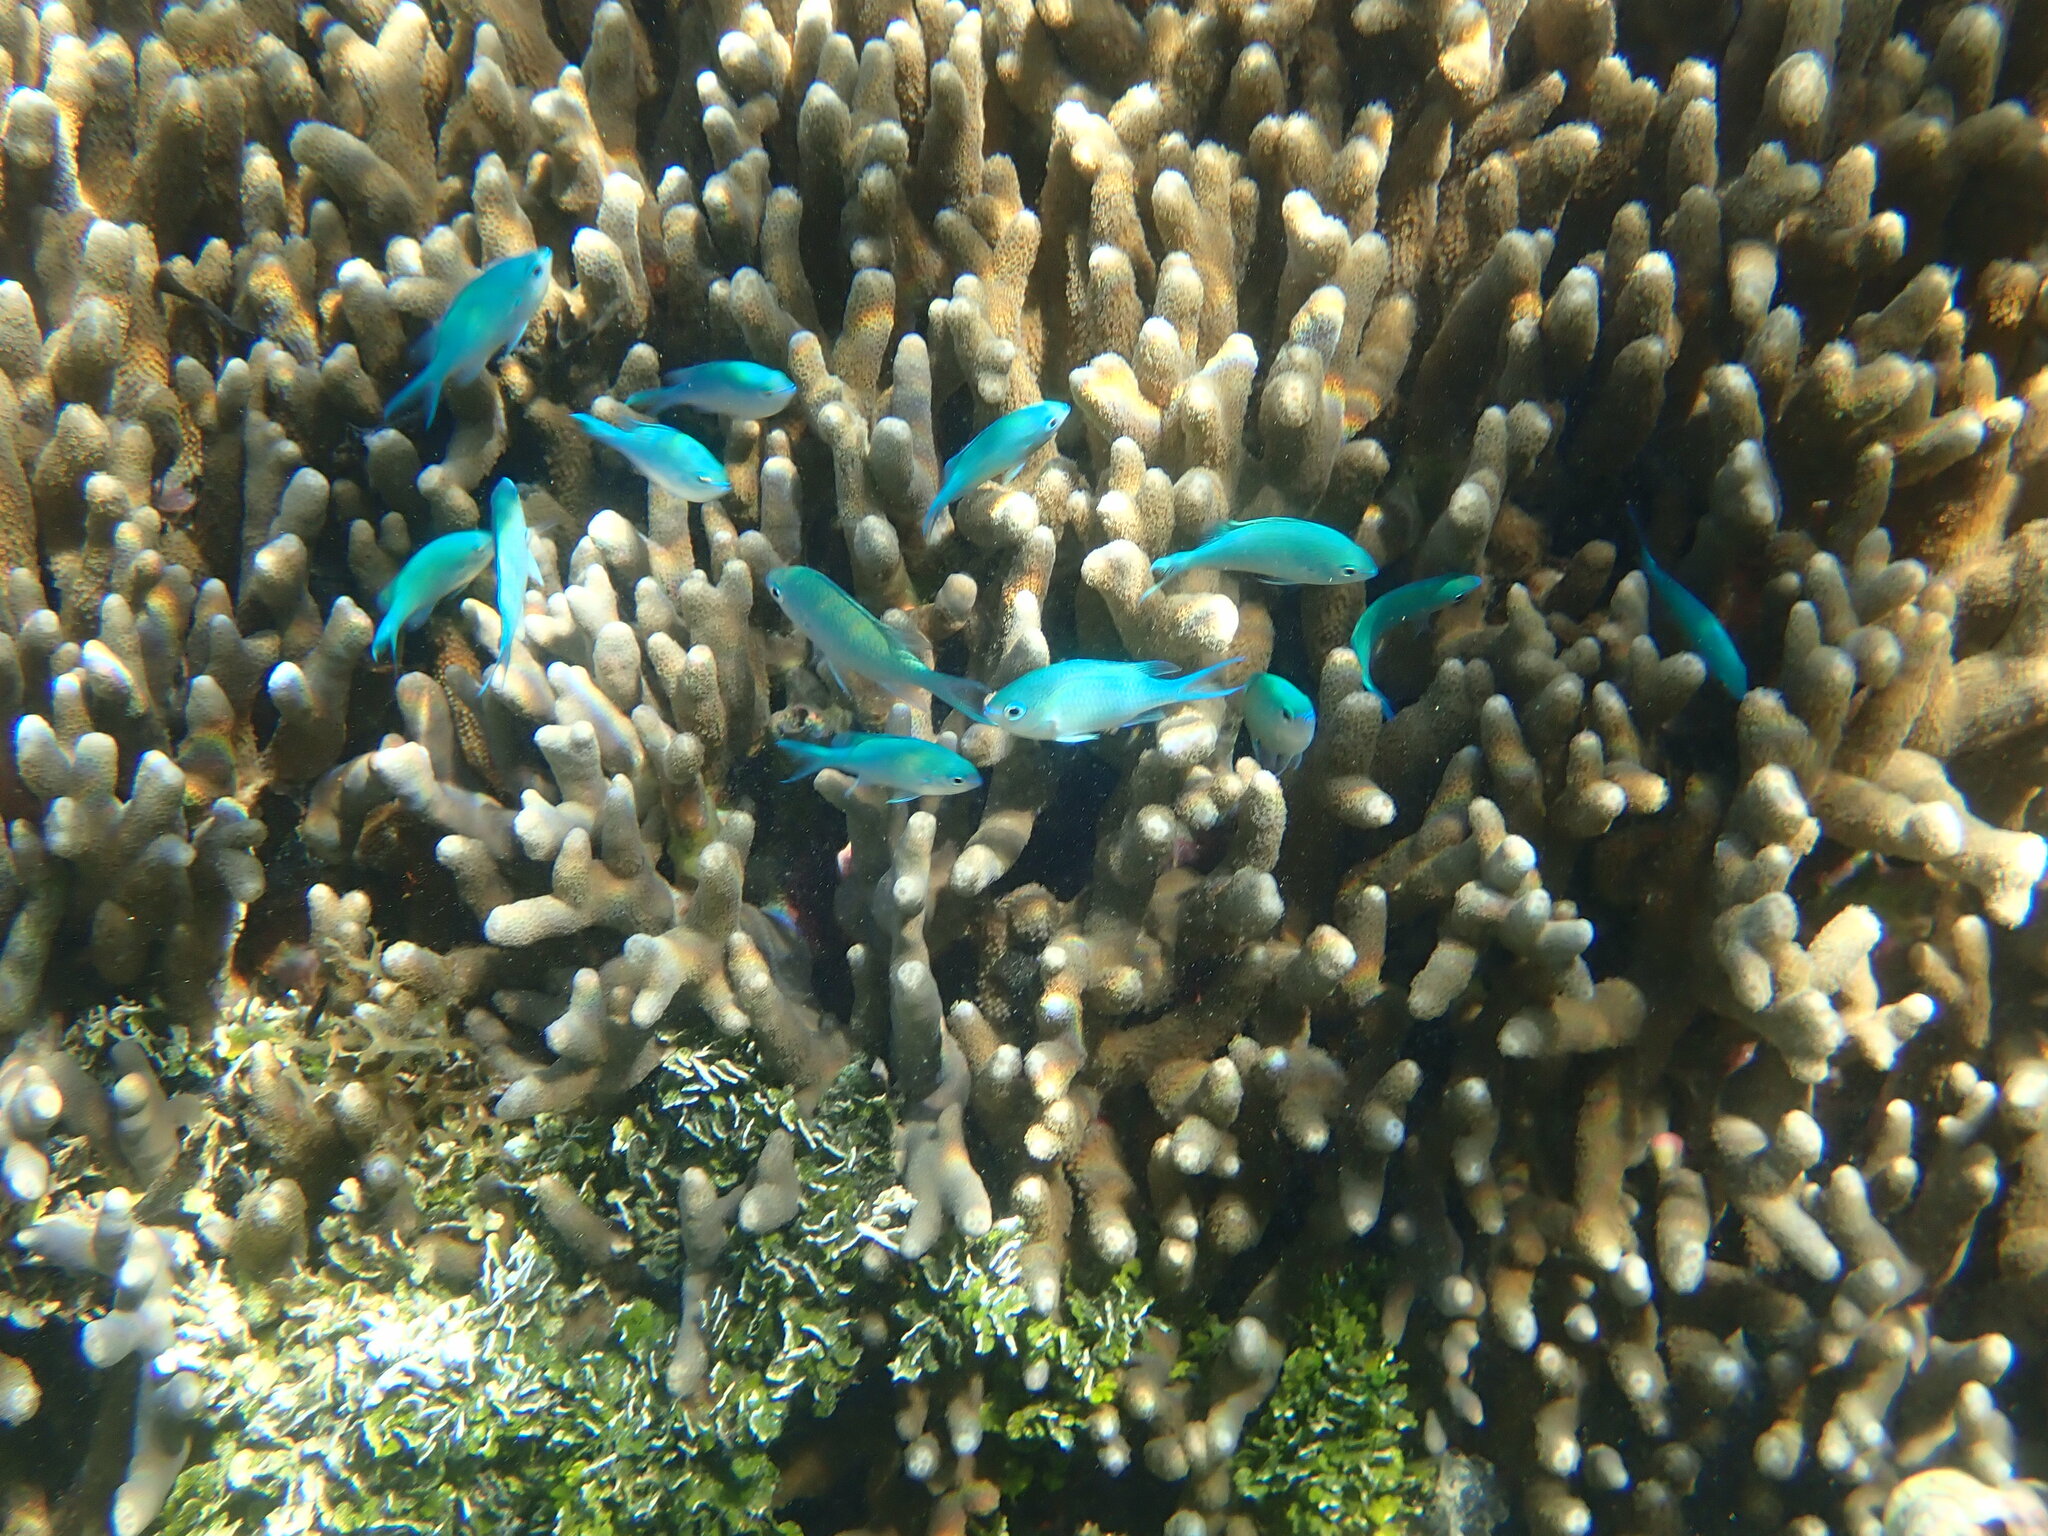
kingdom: Animalia
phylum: Chordata
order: Perciformes
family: Pomacentridae
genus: Chromis
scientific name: Chromis viridis
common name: Blue-green chromis
